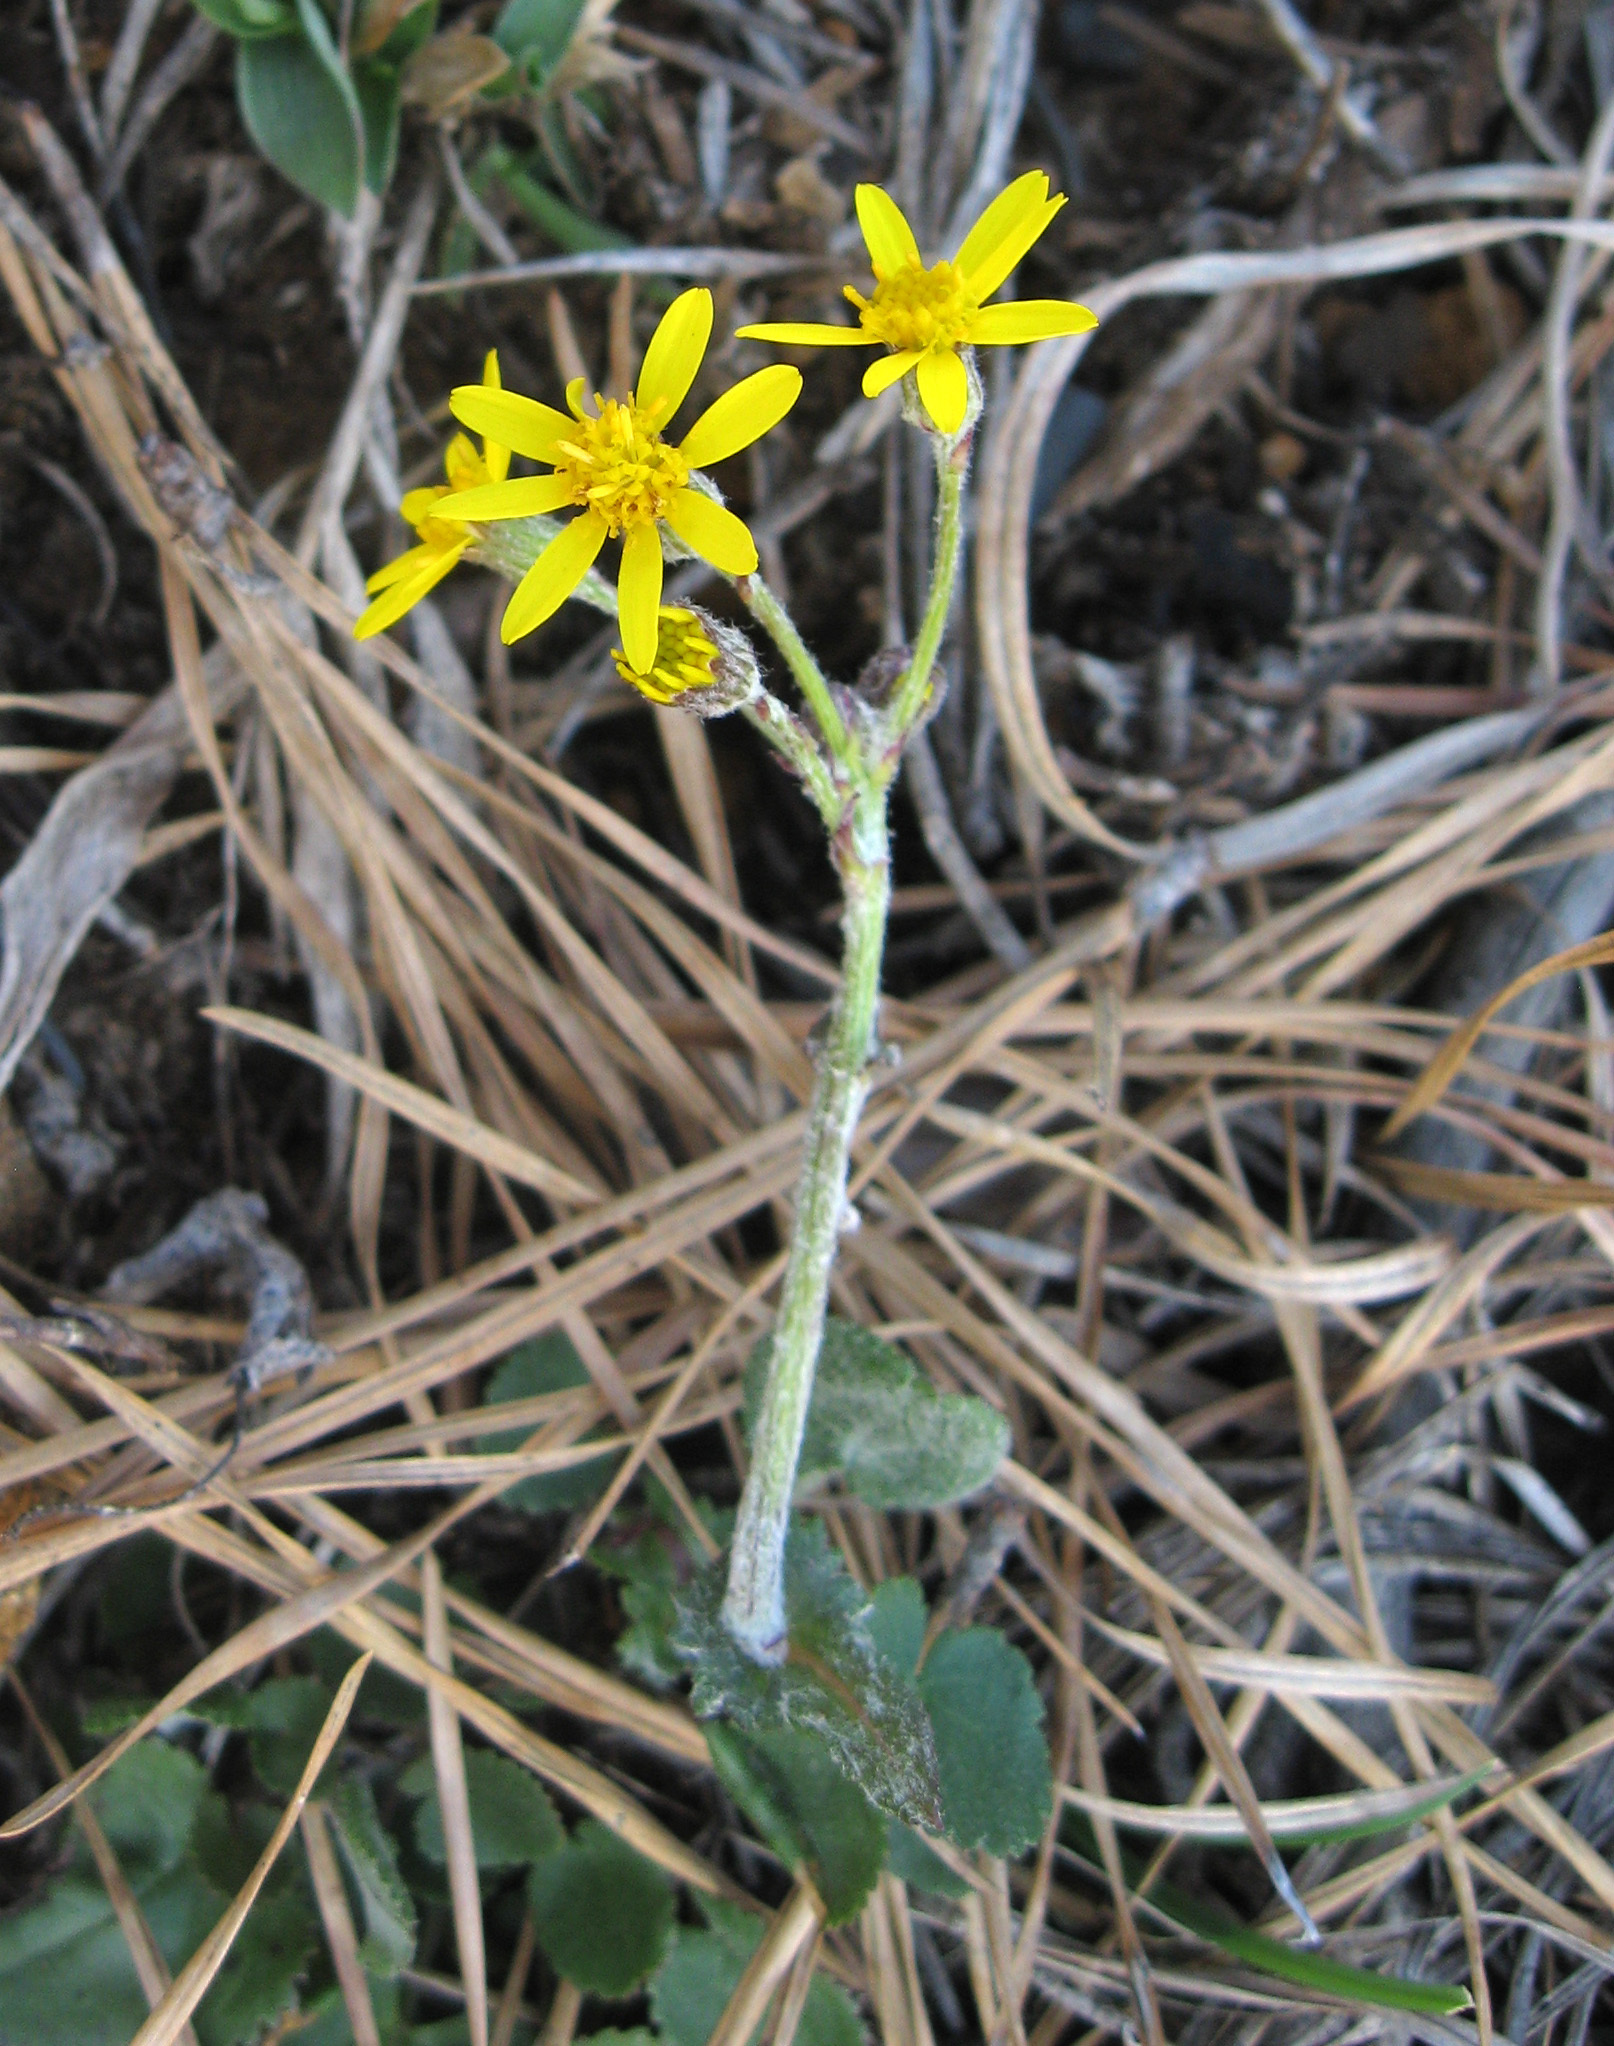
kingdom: Plantae
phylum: Tracheophyta
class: Magnoliopsida
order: Asterales
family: Asteraceae
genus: Packera
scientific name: Packera serpenticola
